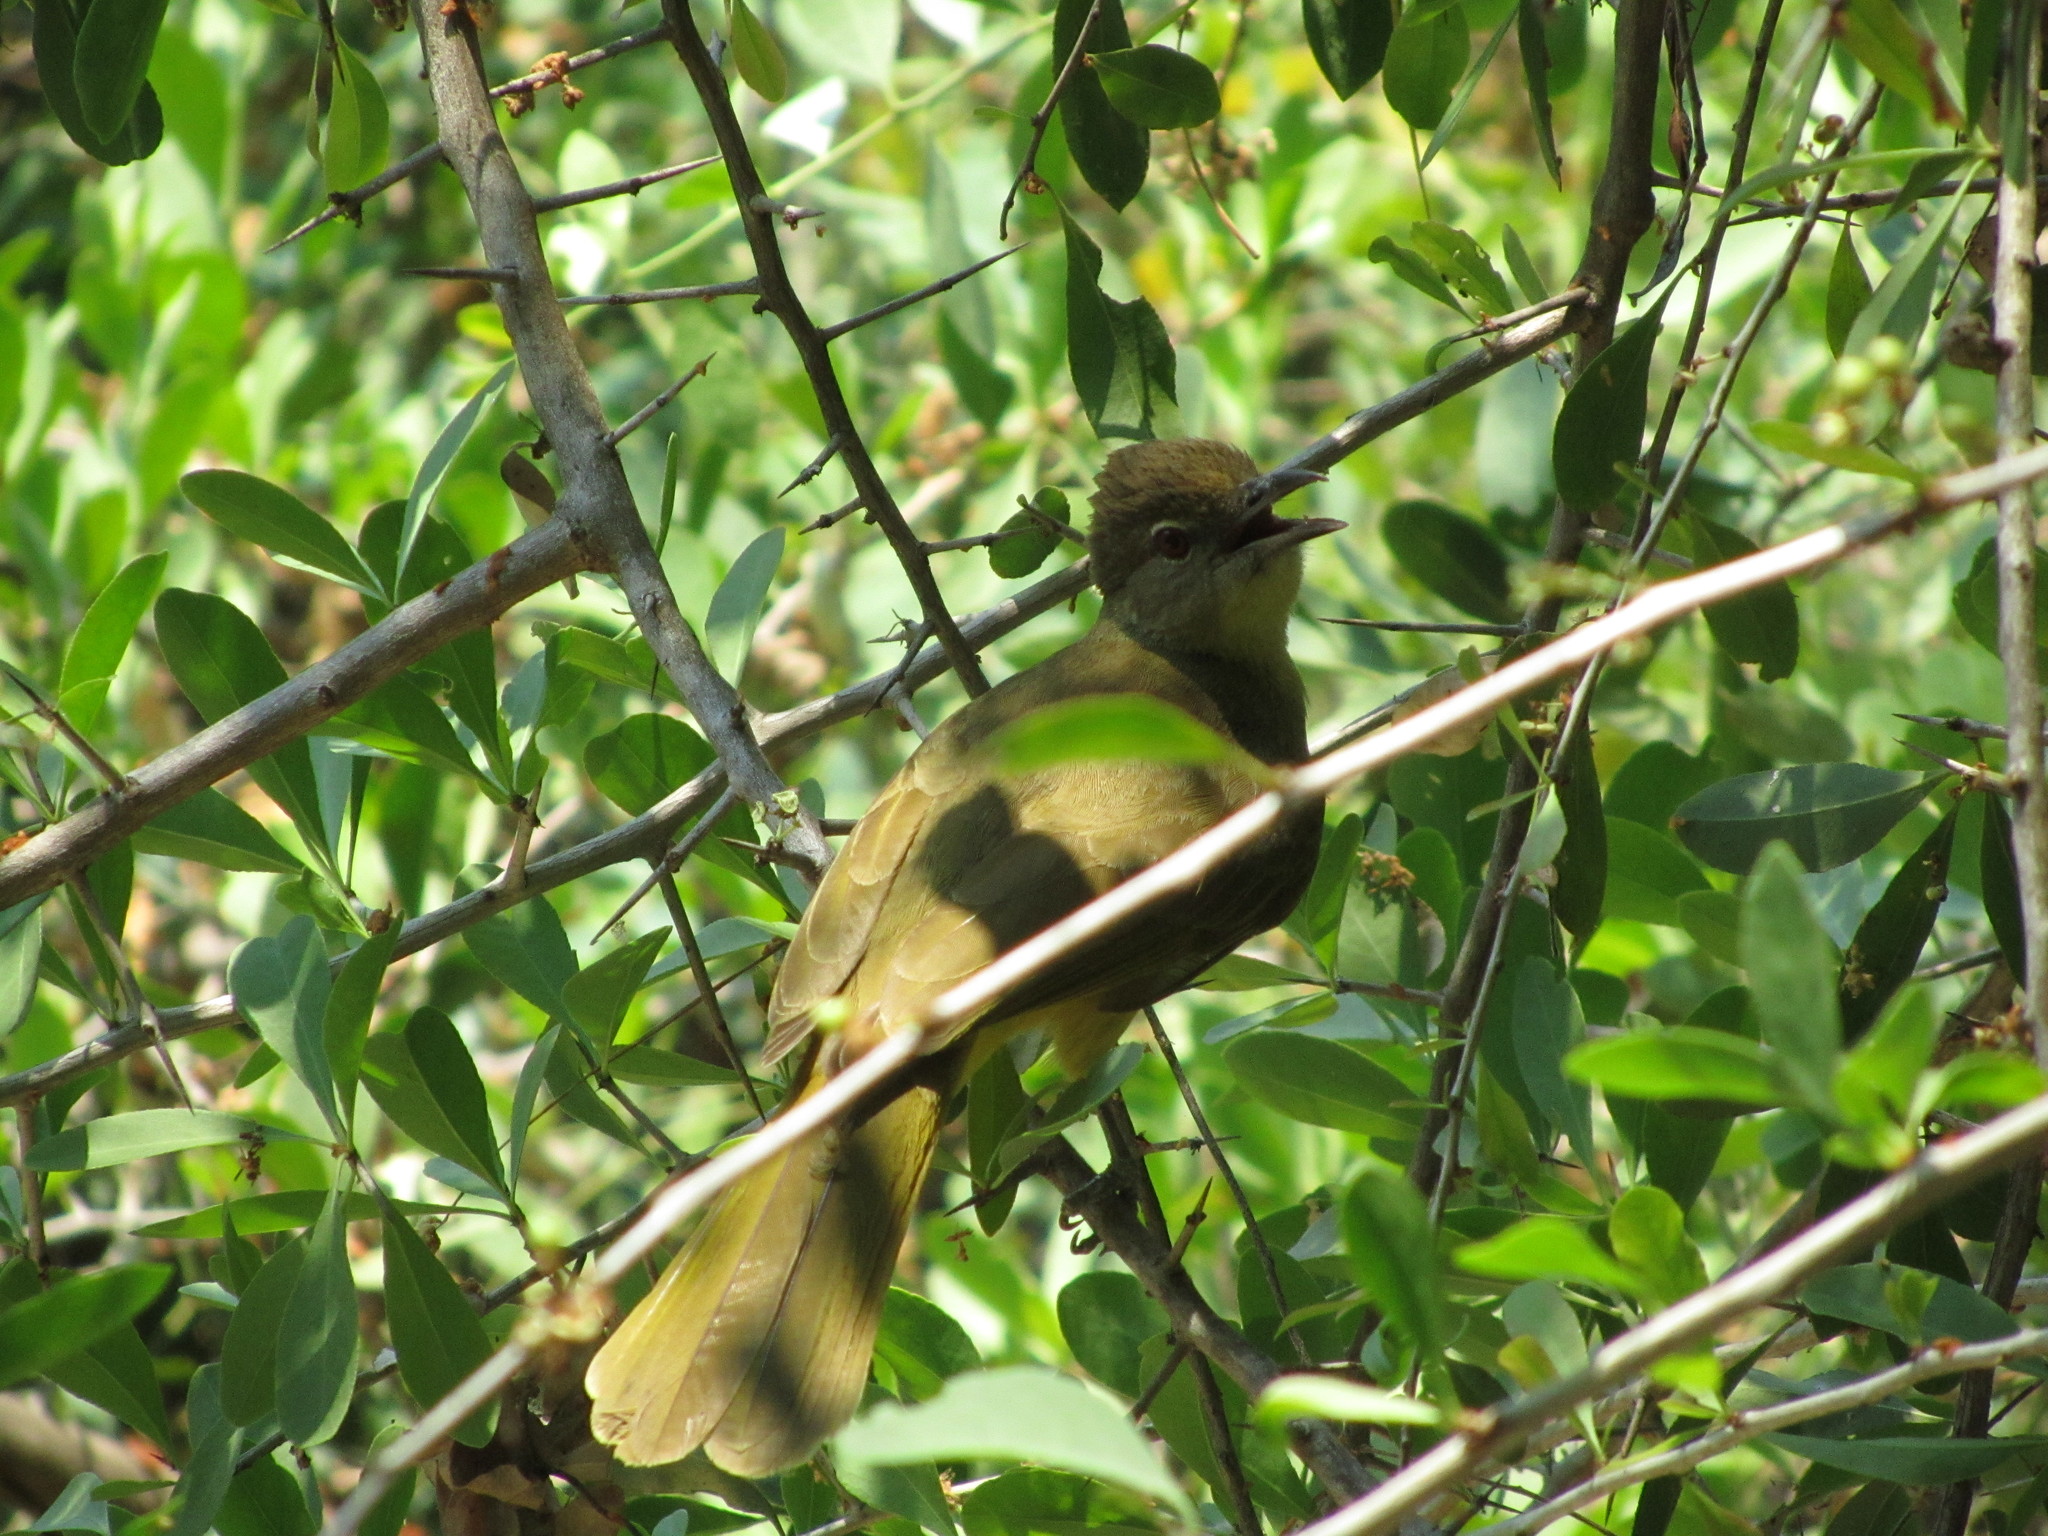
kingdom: Animalia
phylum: Chordata
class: Aves
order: Passeriformes
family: Pycnonotidae
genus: Chlorocichla
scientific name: Chlorocichla flaviventris
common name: Yellow-bellied greenbul
